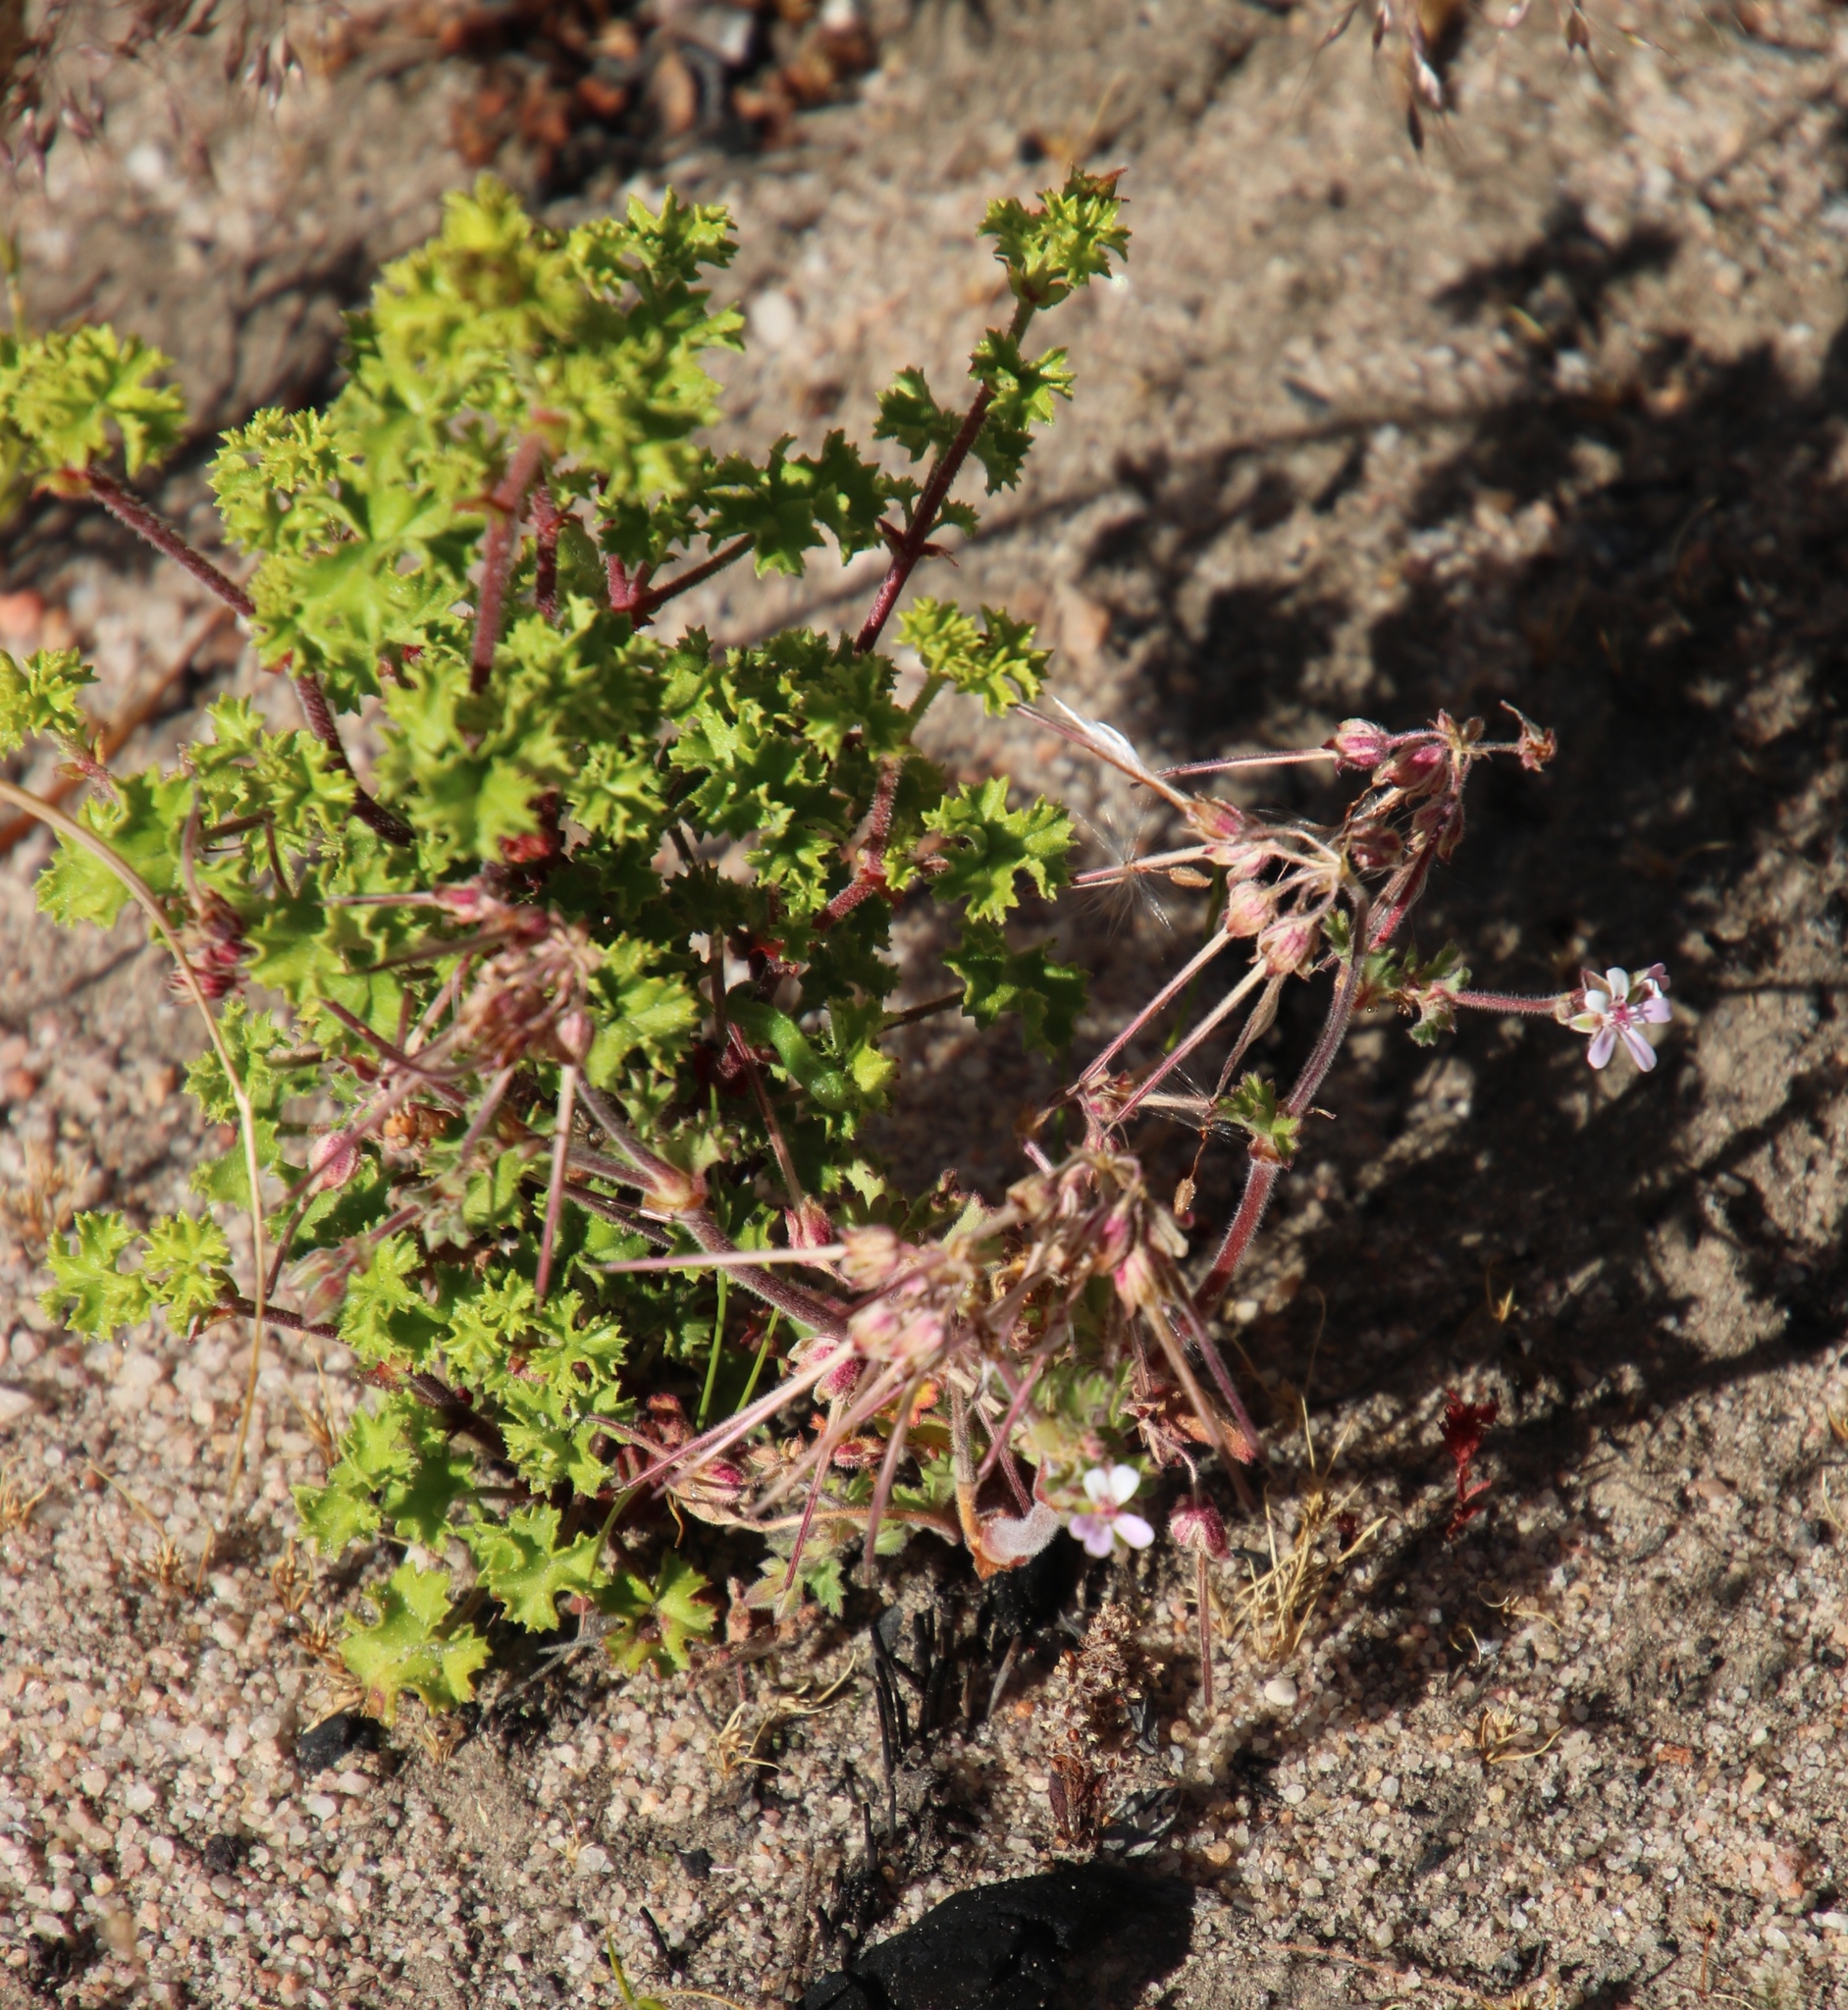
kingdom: Plantae
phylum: Tracheophyta
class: Magnoliopsida
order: Geraniales
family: Geraniaceae
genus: Pelargonium
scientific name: Pelargonium englerianum
